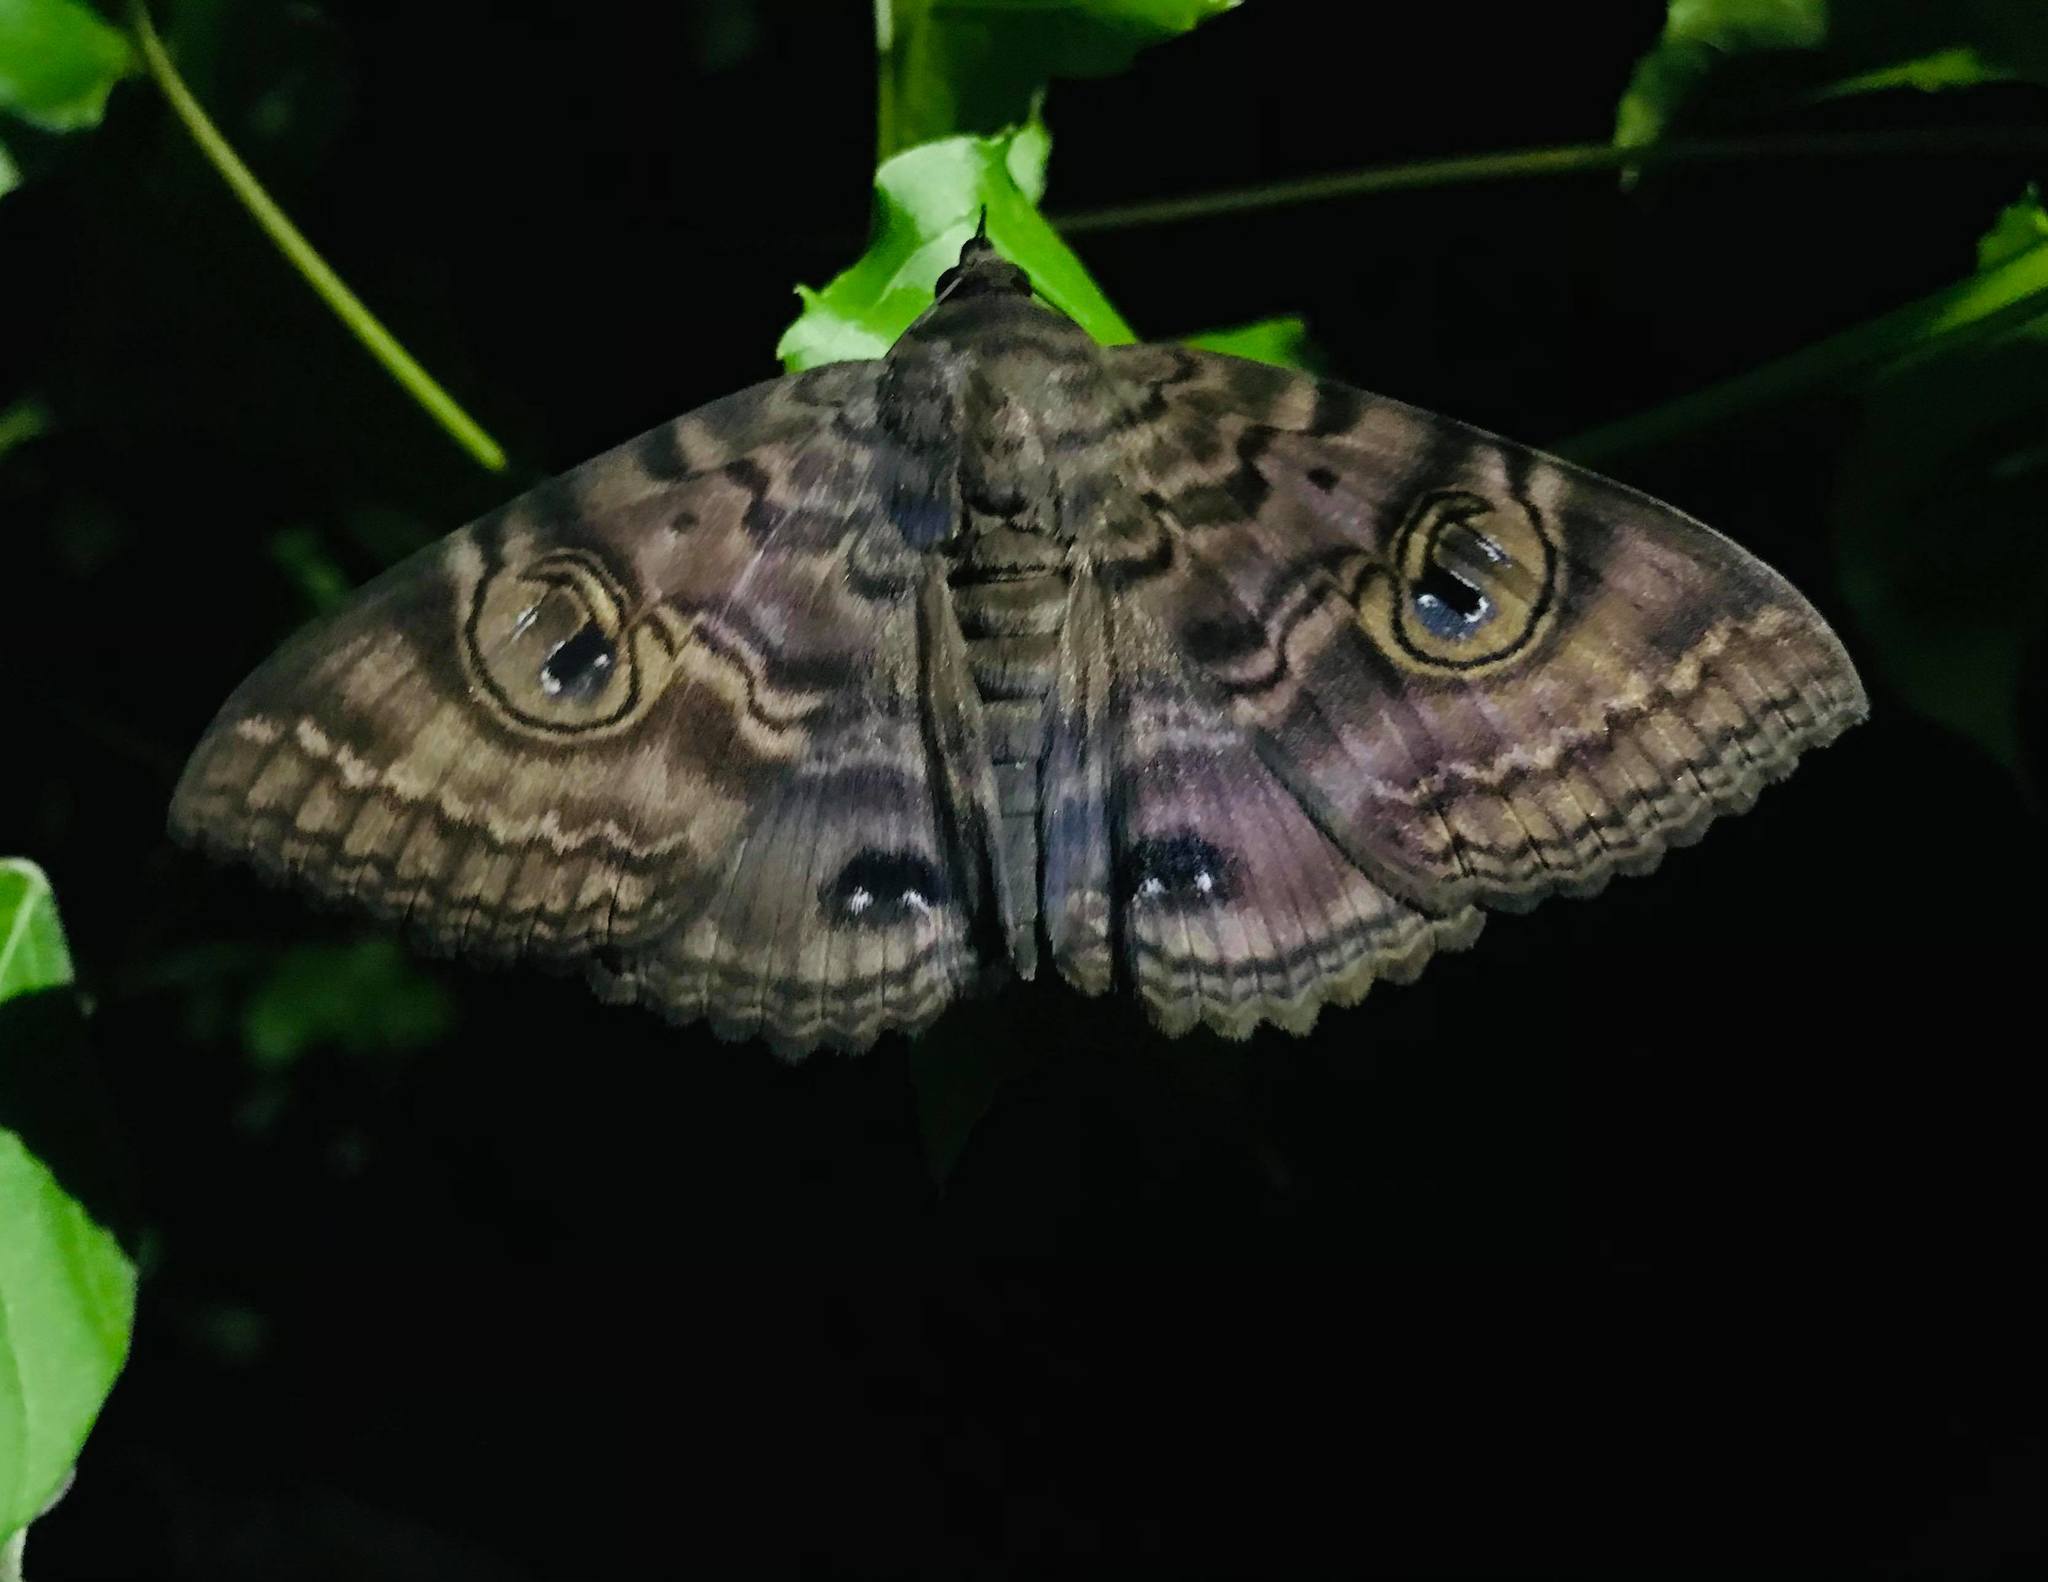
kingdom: Animalia
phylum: Arthropoda
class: Insecta
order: Lepidoptera
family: Erebidae
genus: Speiredonia
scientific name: Speiredonia spectans
